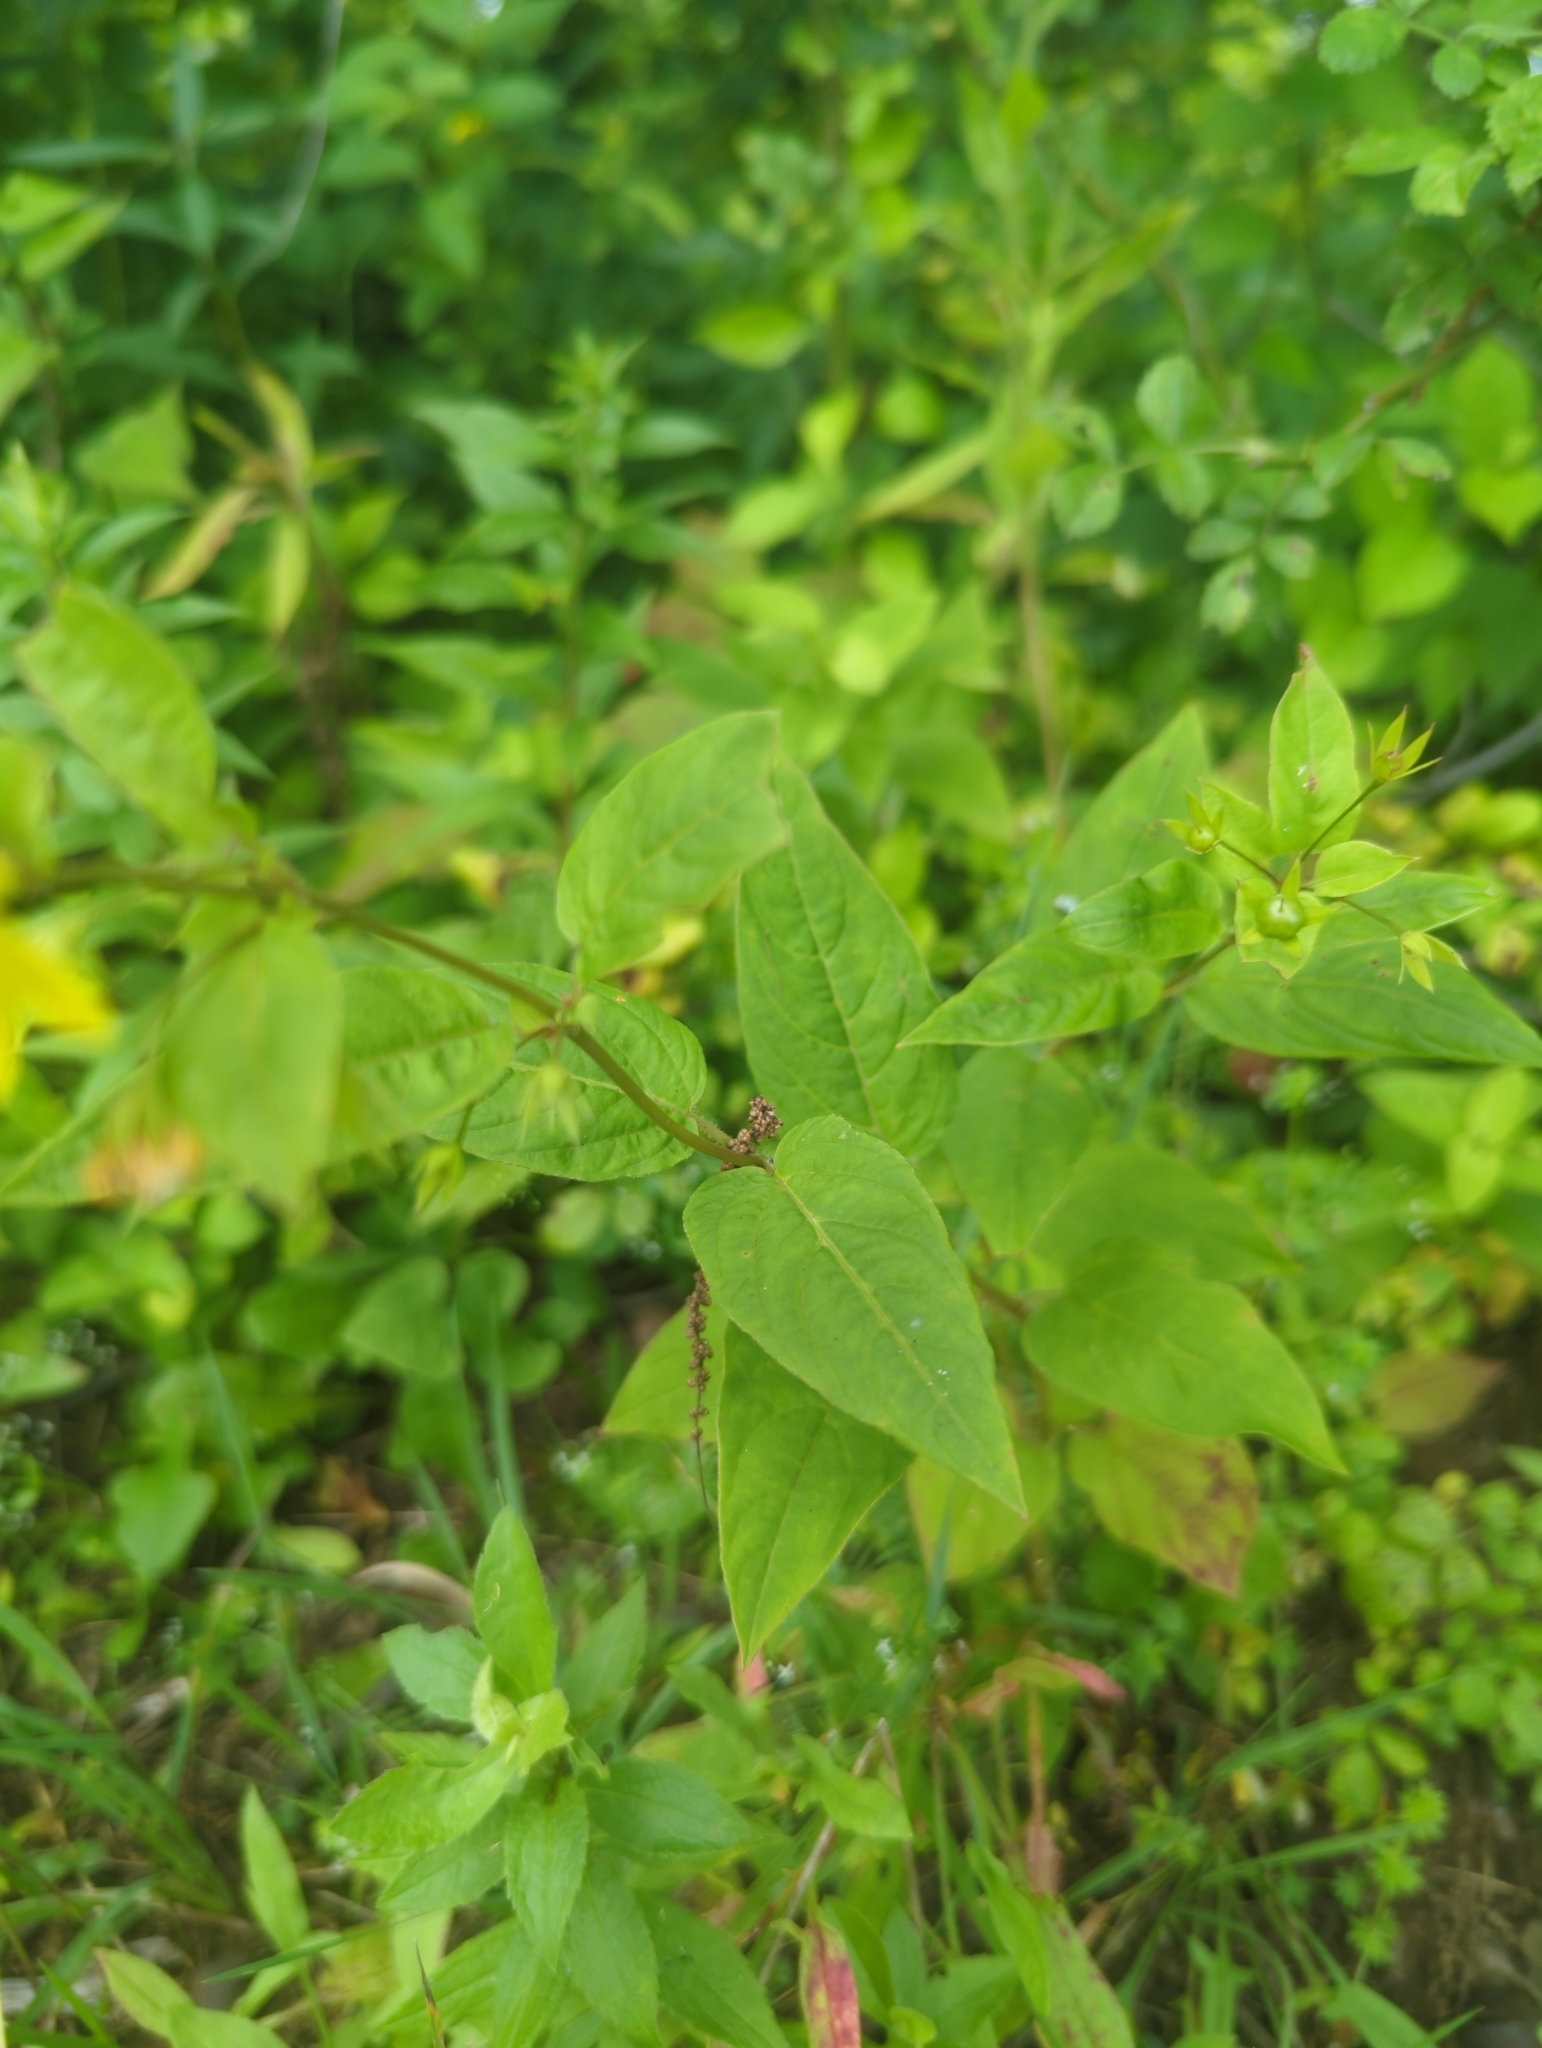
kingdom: Plantae
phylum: Tracheophyta
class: Magnoliopsida
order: Ericales
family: Primulaceae
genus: Lysimachia
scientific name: Lysimachia ciliata
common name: Fringed loosestrife
